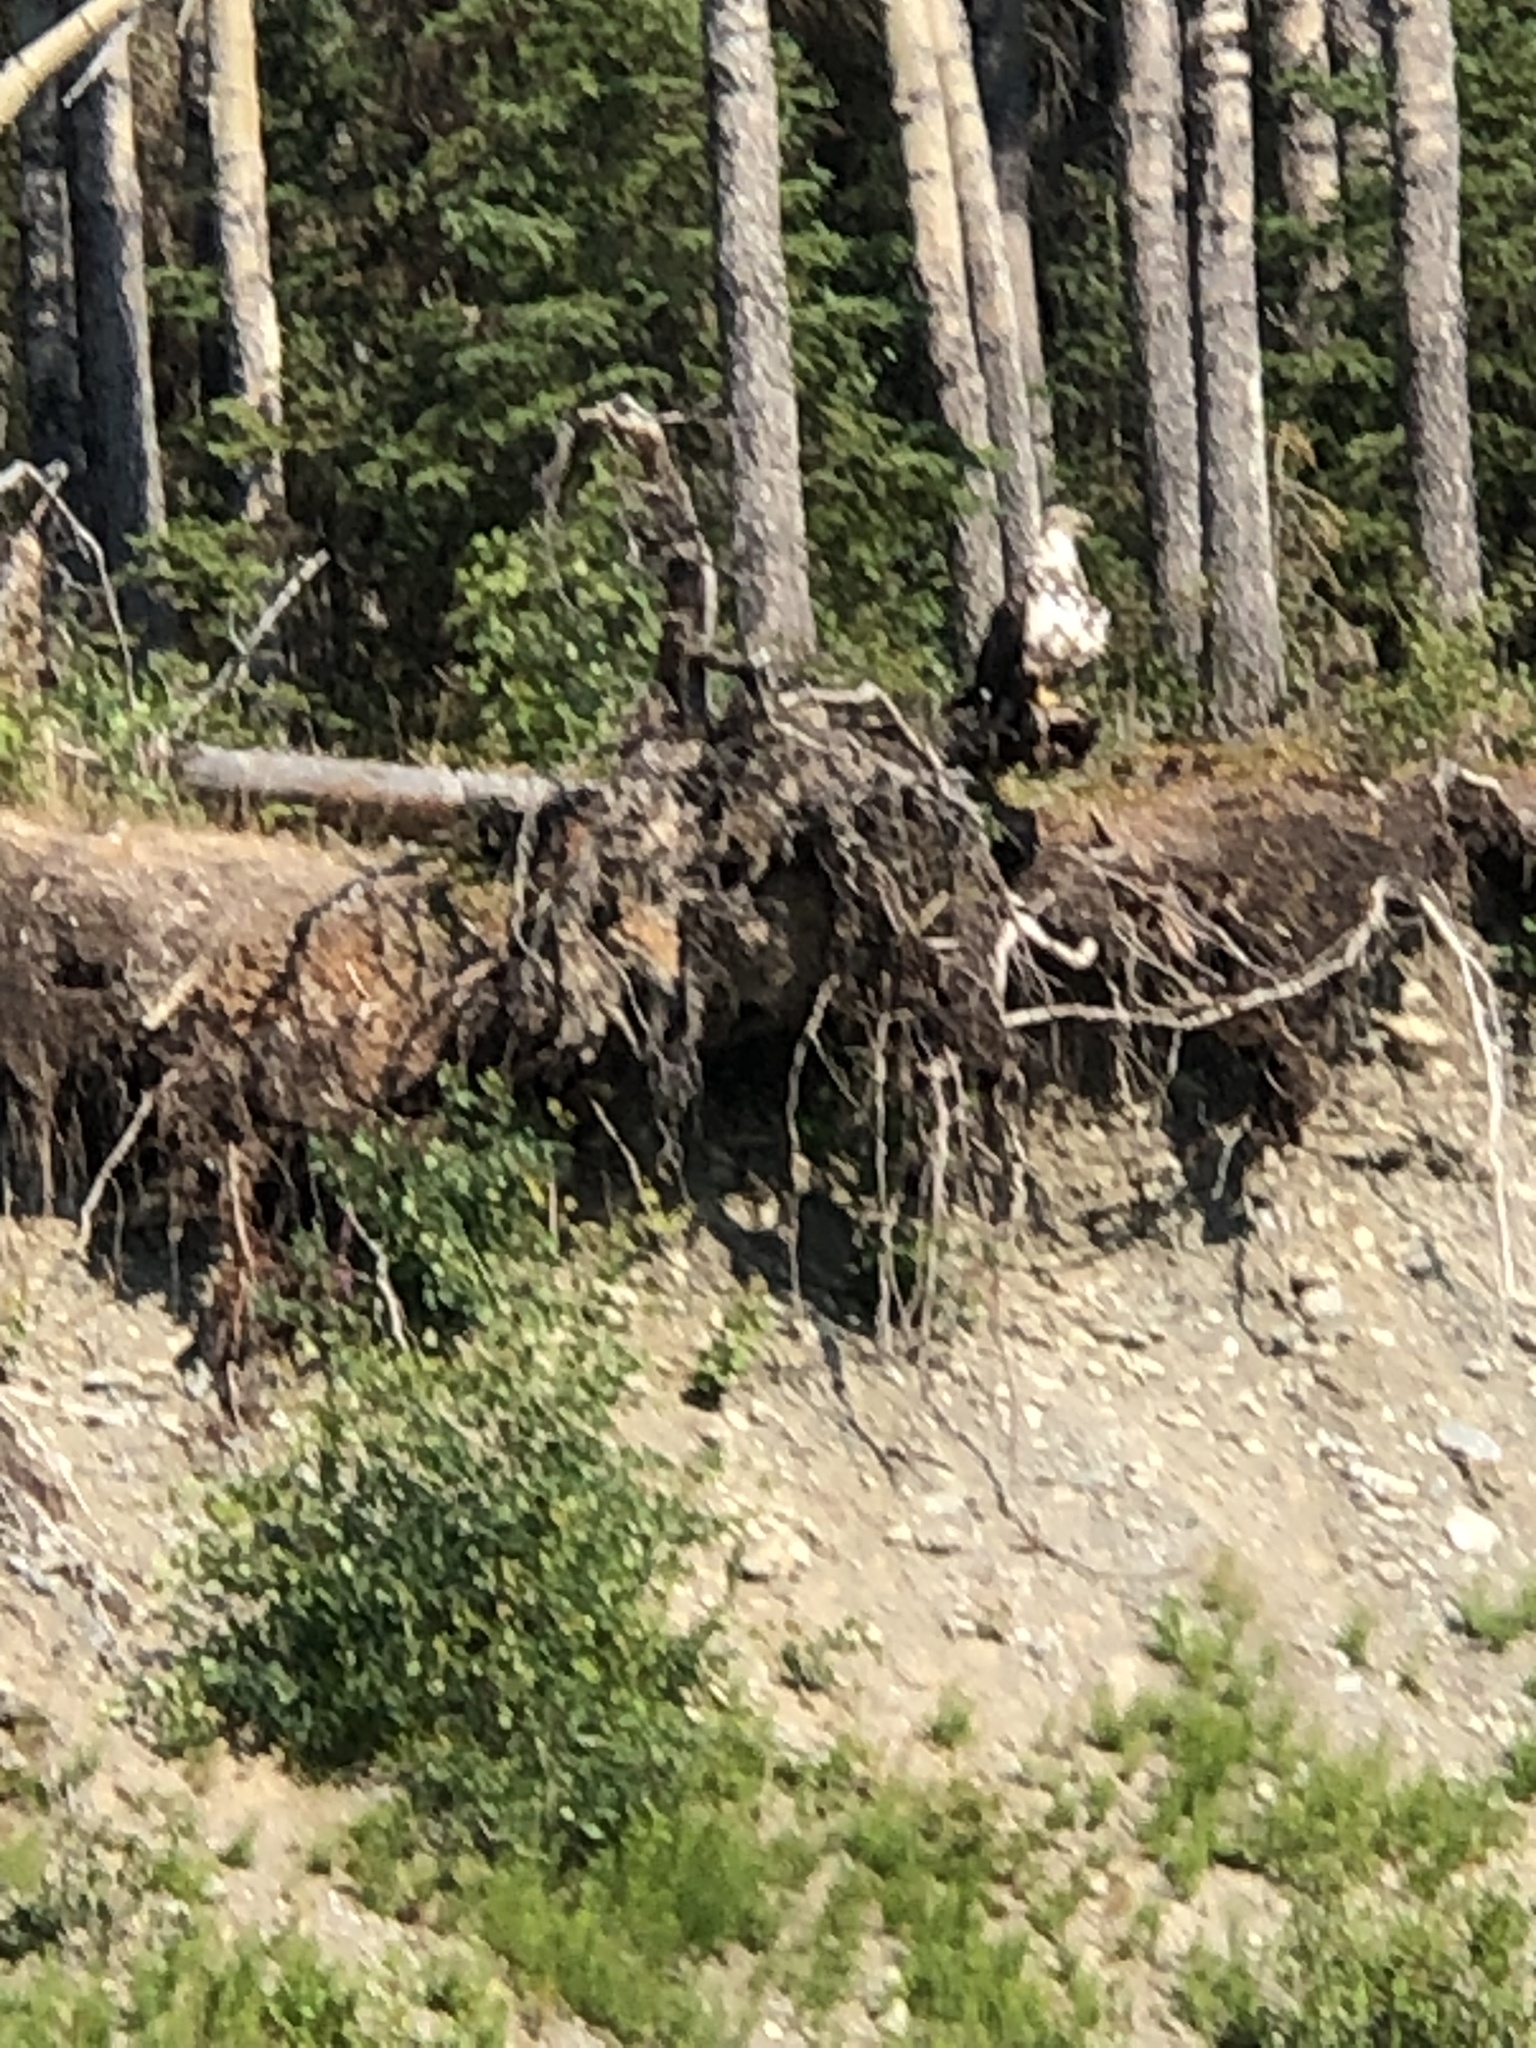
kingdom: Animalia
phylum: Chordata
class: Aves
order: Accipitriformes
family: Accipitridae
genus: Haliaeetus
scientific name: Haliaeetus leucocephalus
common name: Bald eagle
